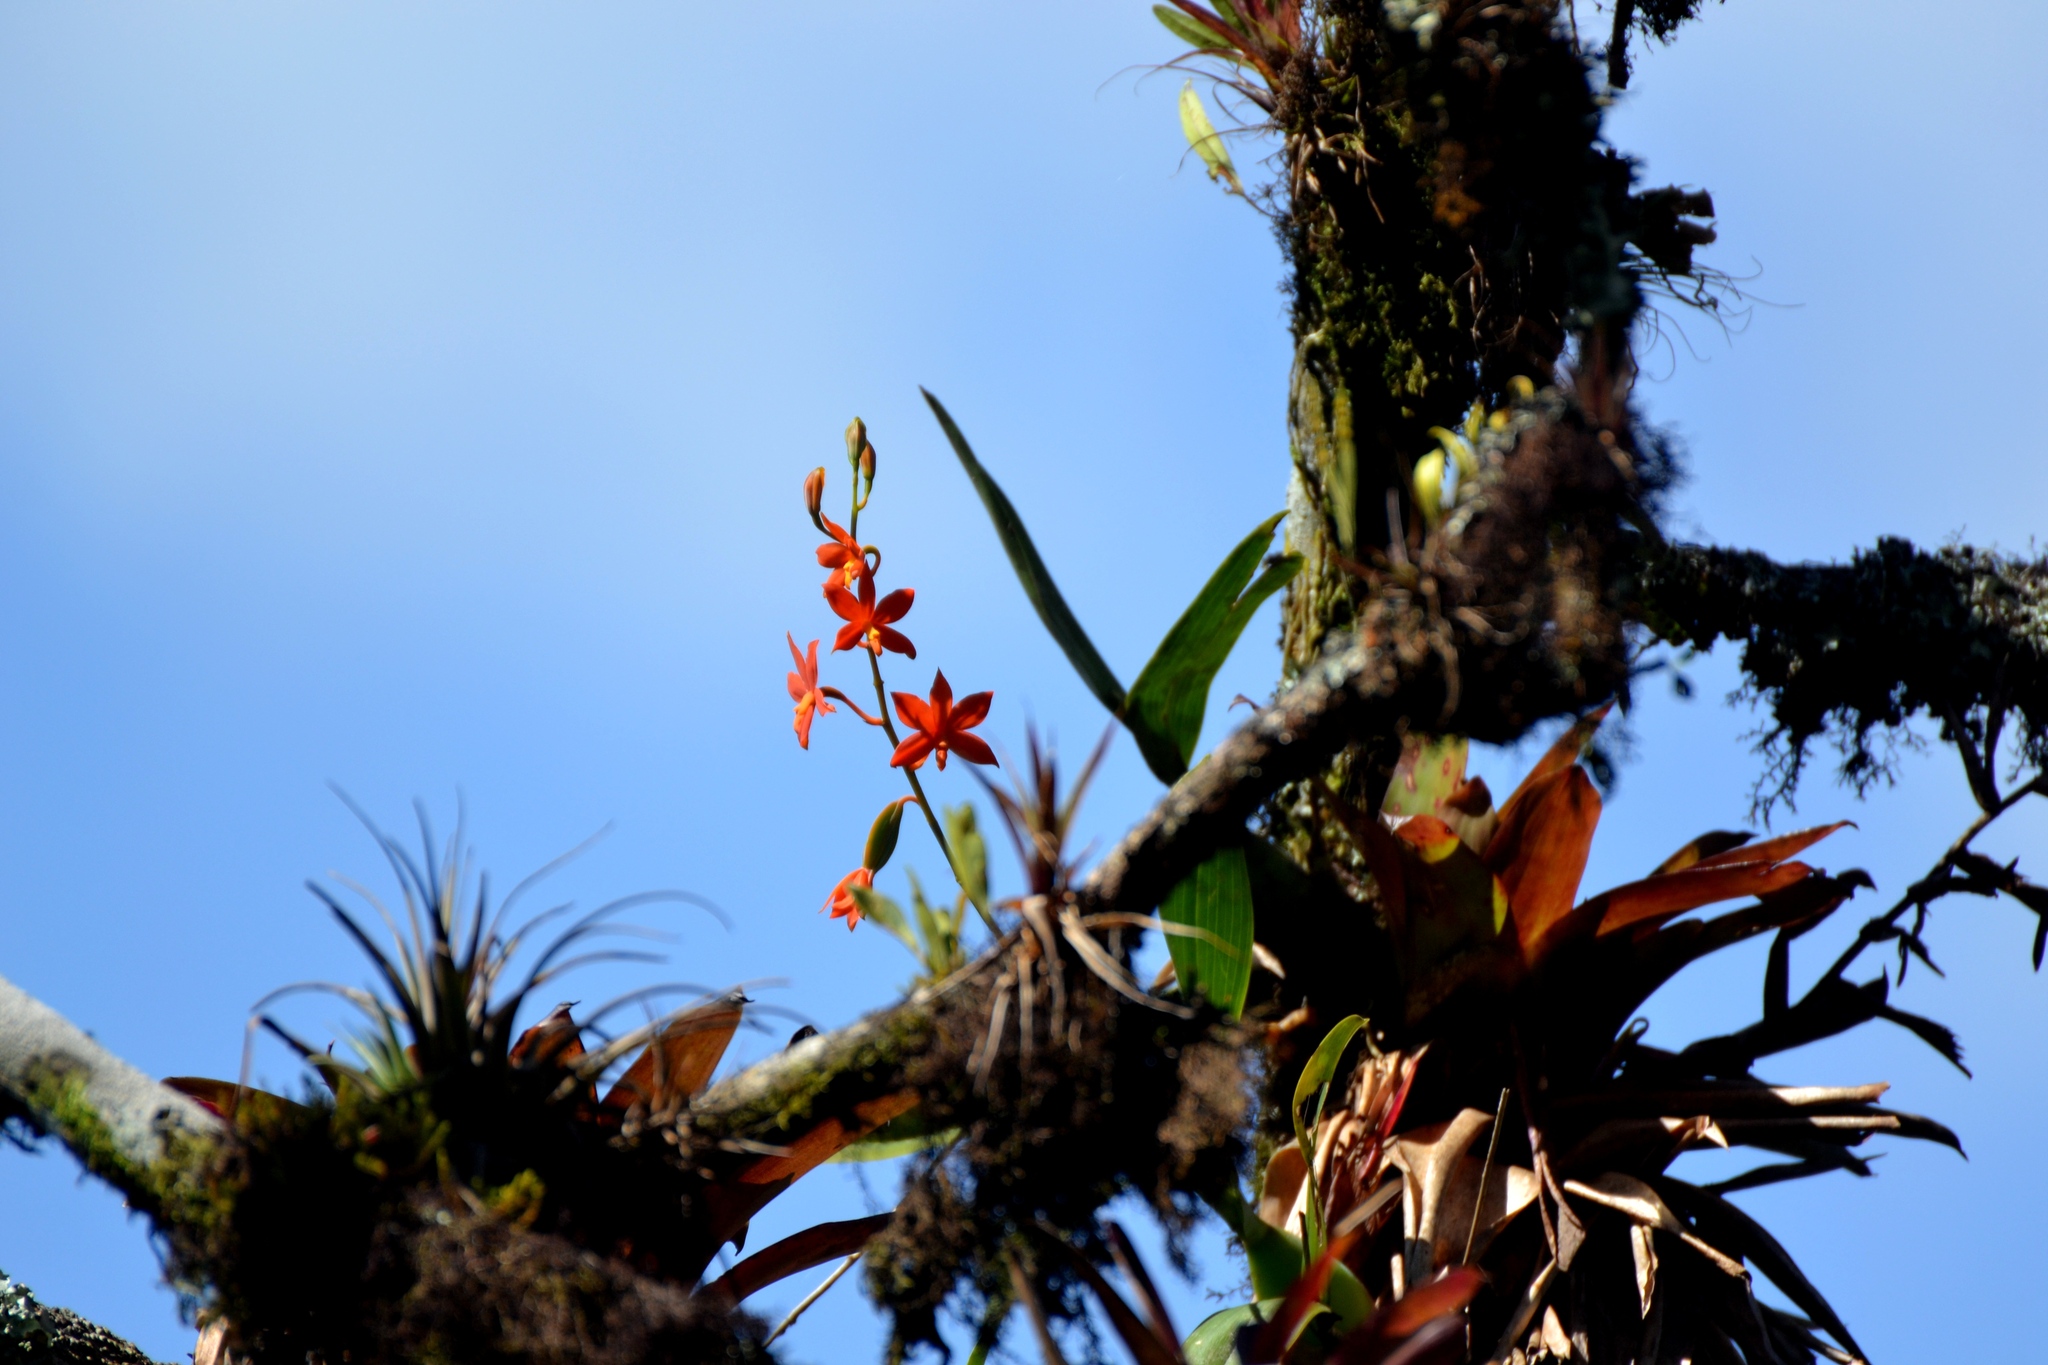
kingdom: Plantae
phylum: Tracheophyta
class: Liliopsida
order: Asparagales
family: Orchidaceae
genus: Prosthechea
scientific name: Prosthechea vitellina
